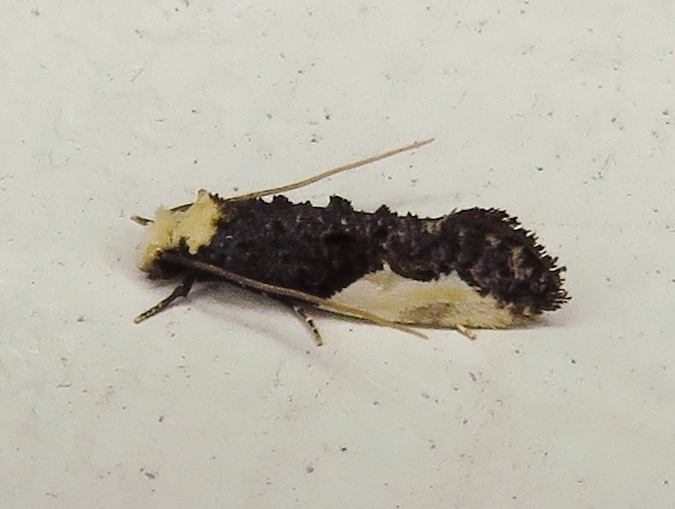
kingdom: Animalia
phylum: Arthropoda
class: Insecta
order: Lepidoptera
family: Tineidae
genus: Monopis
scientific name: Monopis longella
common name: Pavlovski's monopis moth
